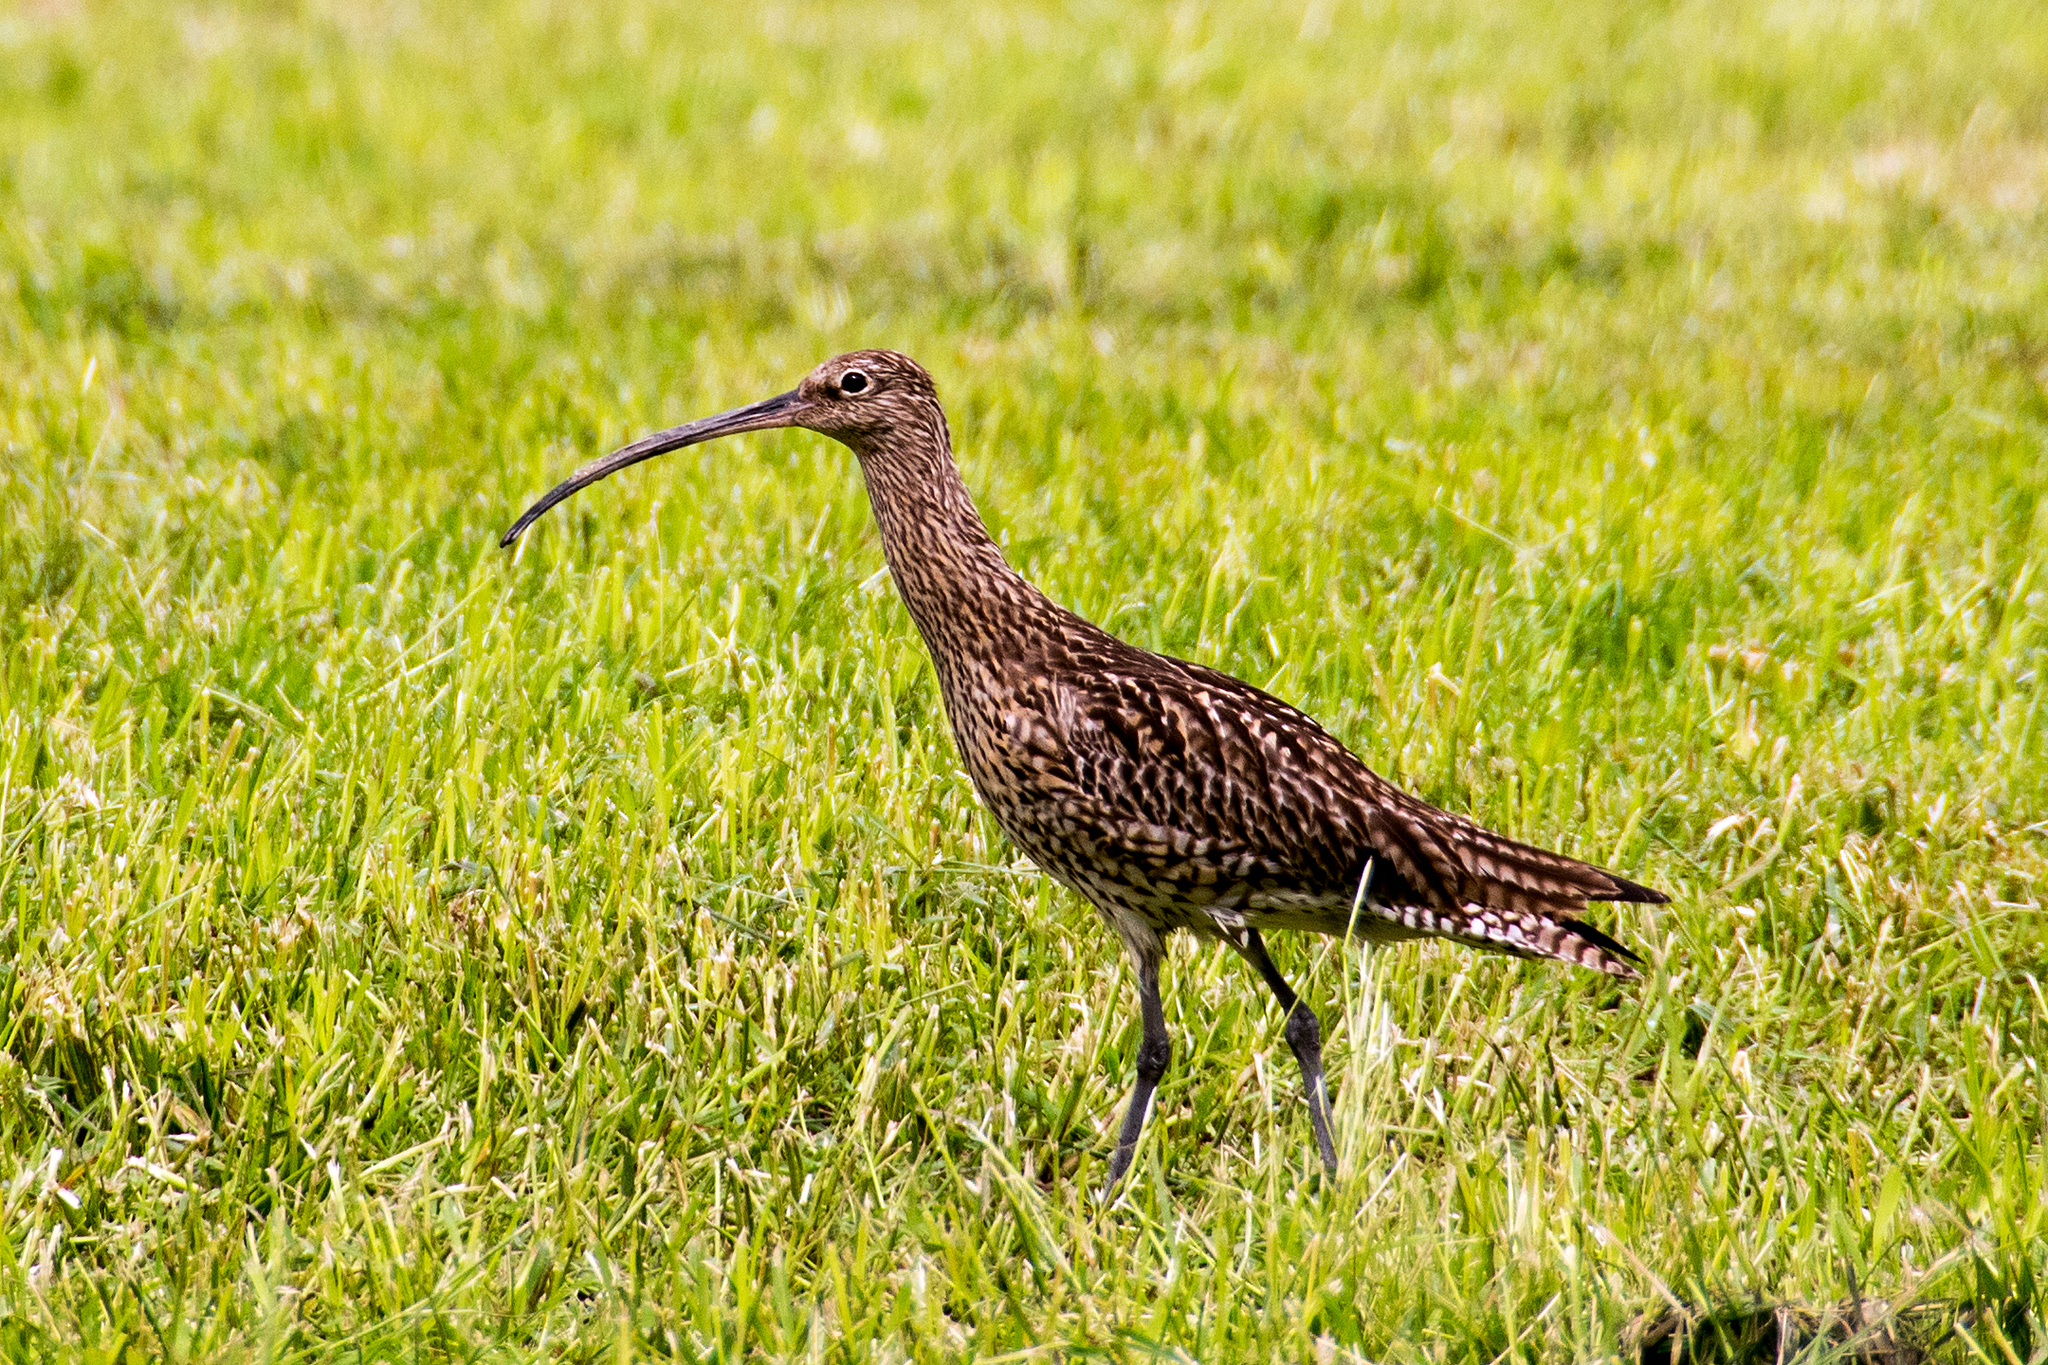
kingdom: Animalia
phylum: Chordata
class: Aves
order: Charadriiformes
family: Scolopacidae
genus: Numenius
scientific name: Numenius arquata
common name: Eurasian curlew
